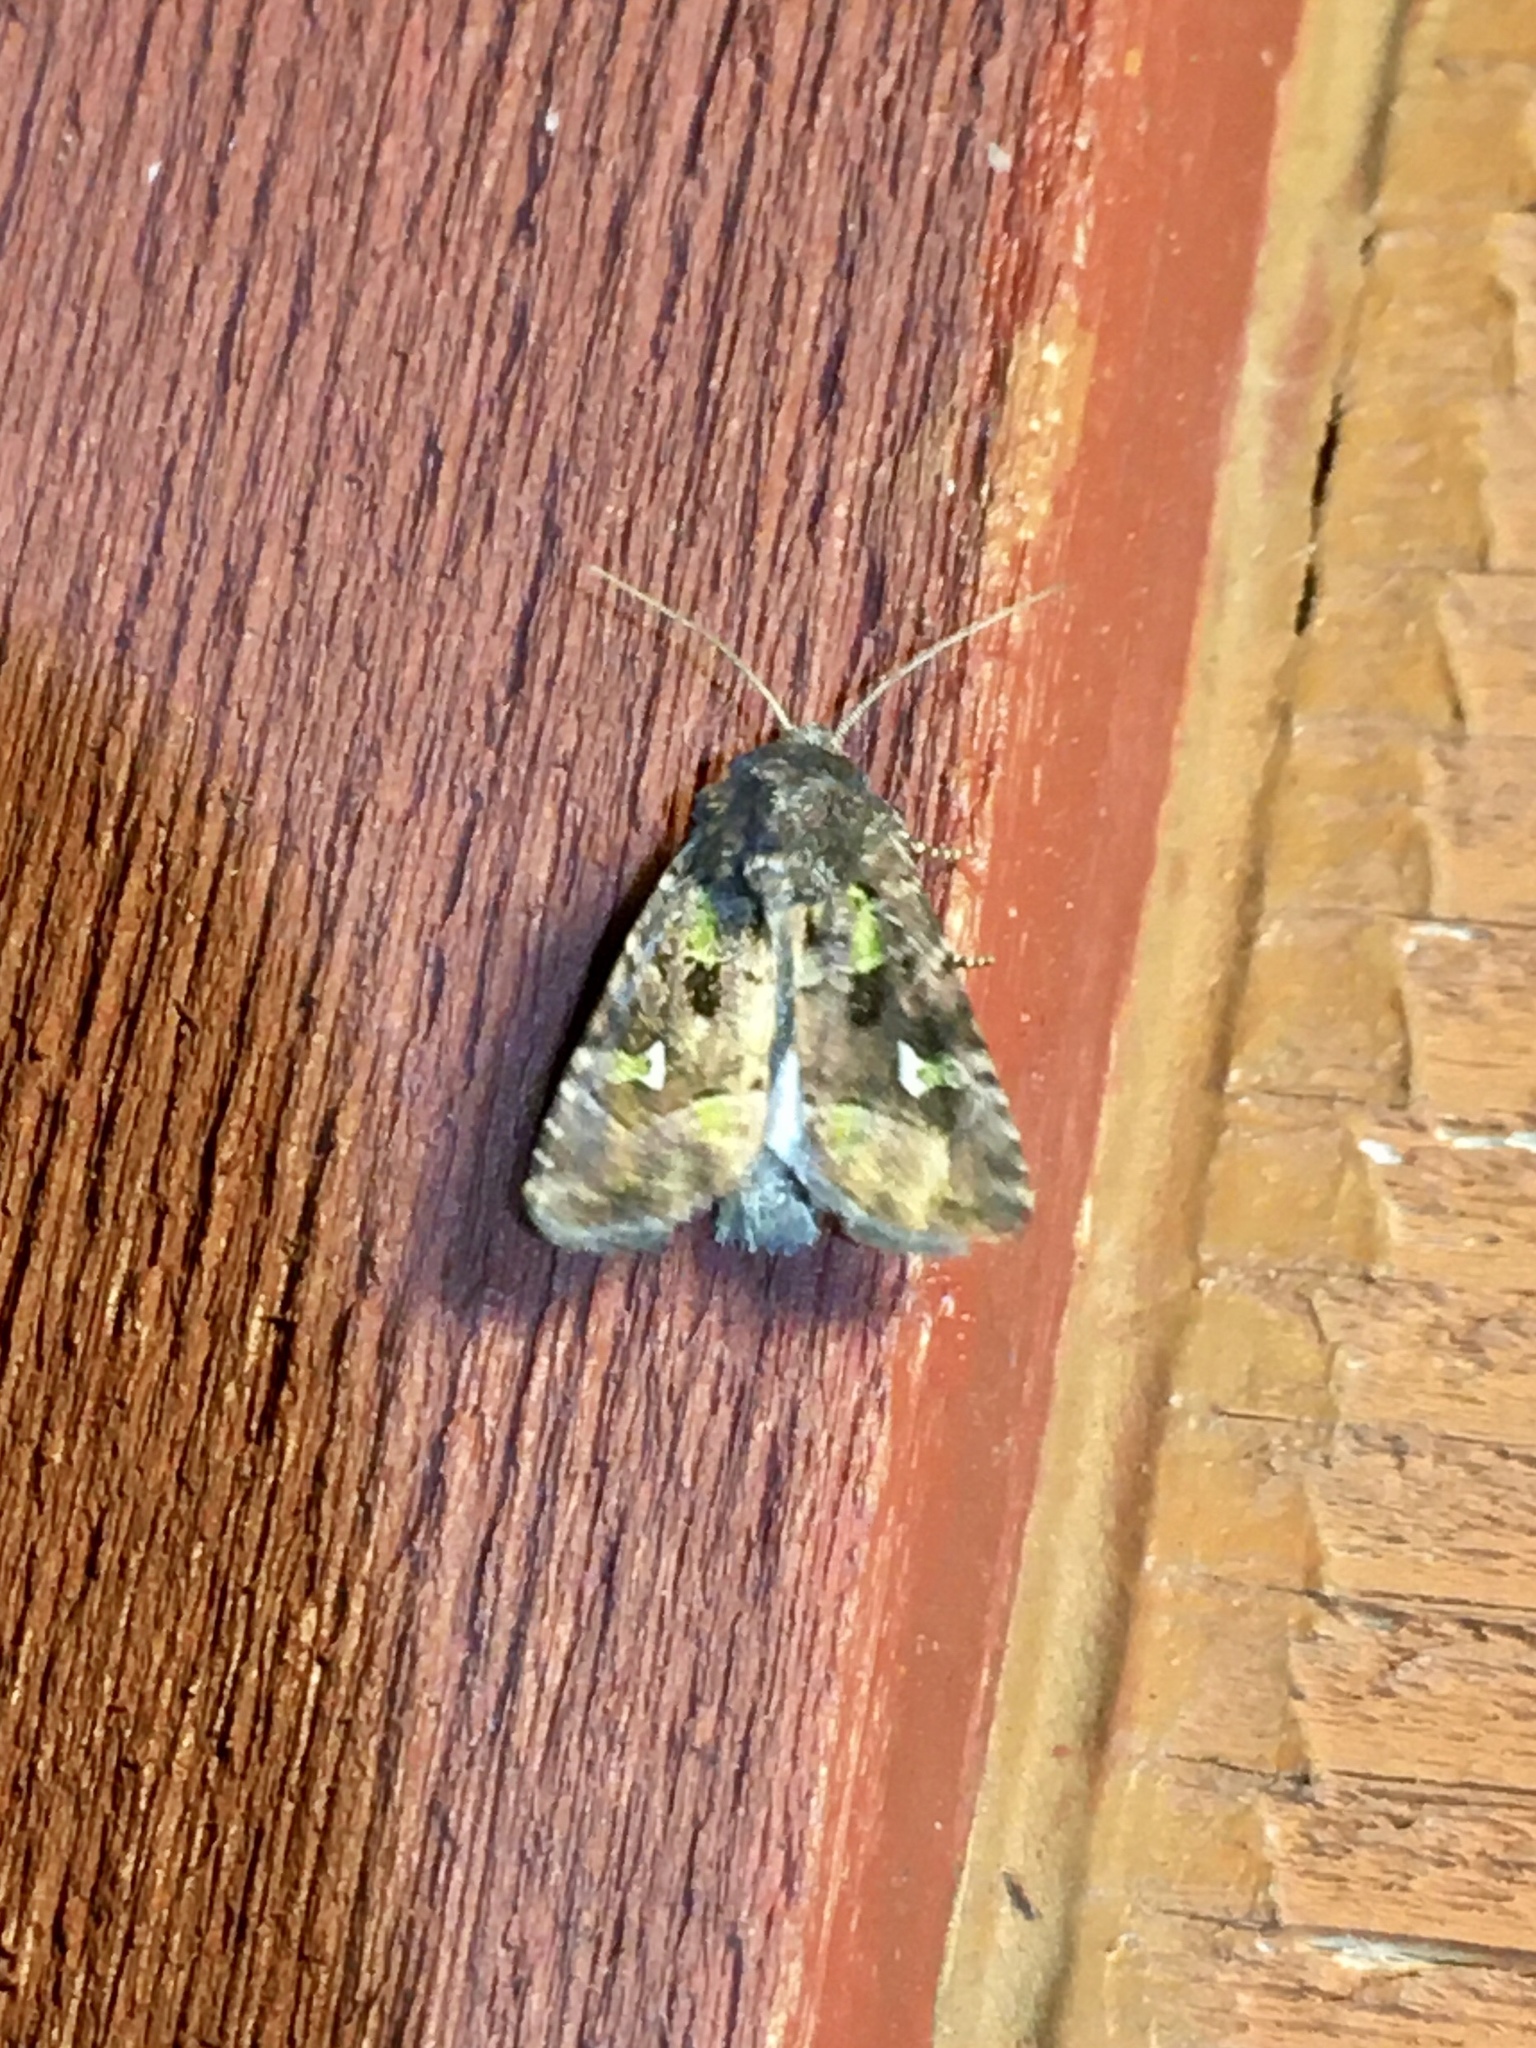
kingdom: Animalia
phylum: Arthropoda
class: Insecta
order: Lepidoptera
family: Noctuidae
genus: Lacinipolia
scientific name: Lacinipolia renigera
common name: Kidney-spotted minor
